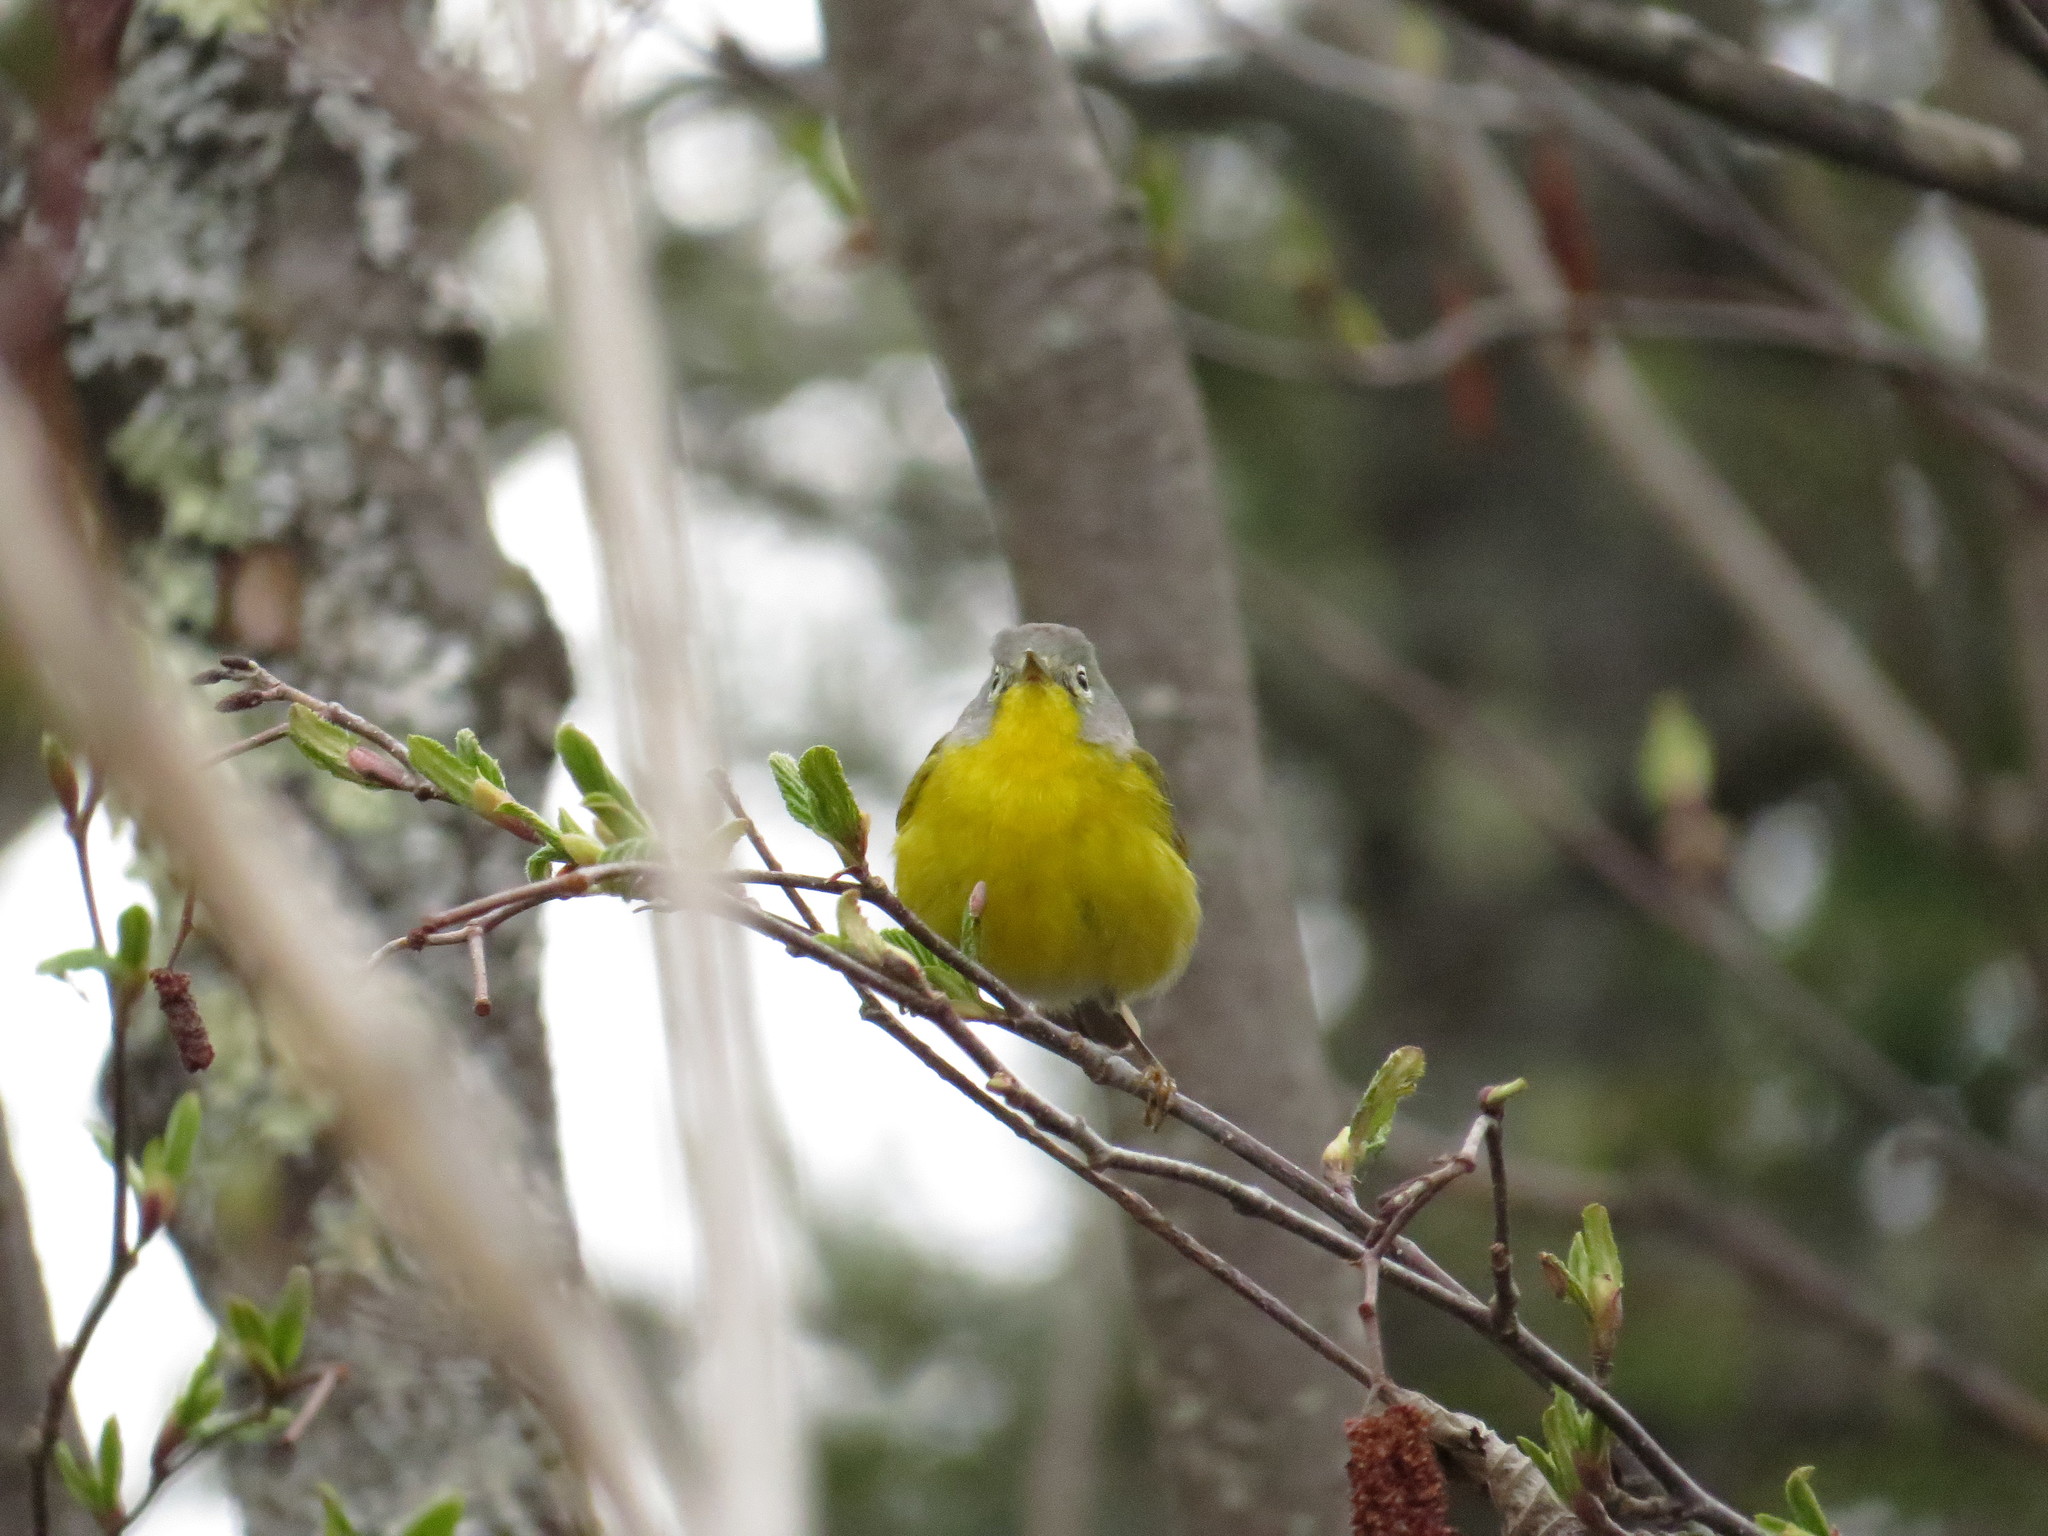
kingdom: Animalia
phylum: Chordata
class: Aves
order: Passeriformes
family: Parulidae
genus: Leiothlypis
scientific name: Leiothlypis ruficapilla
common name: Nashville warbler
